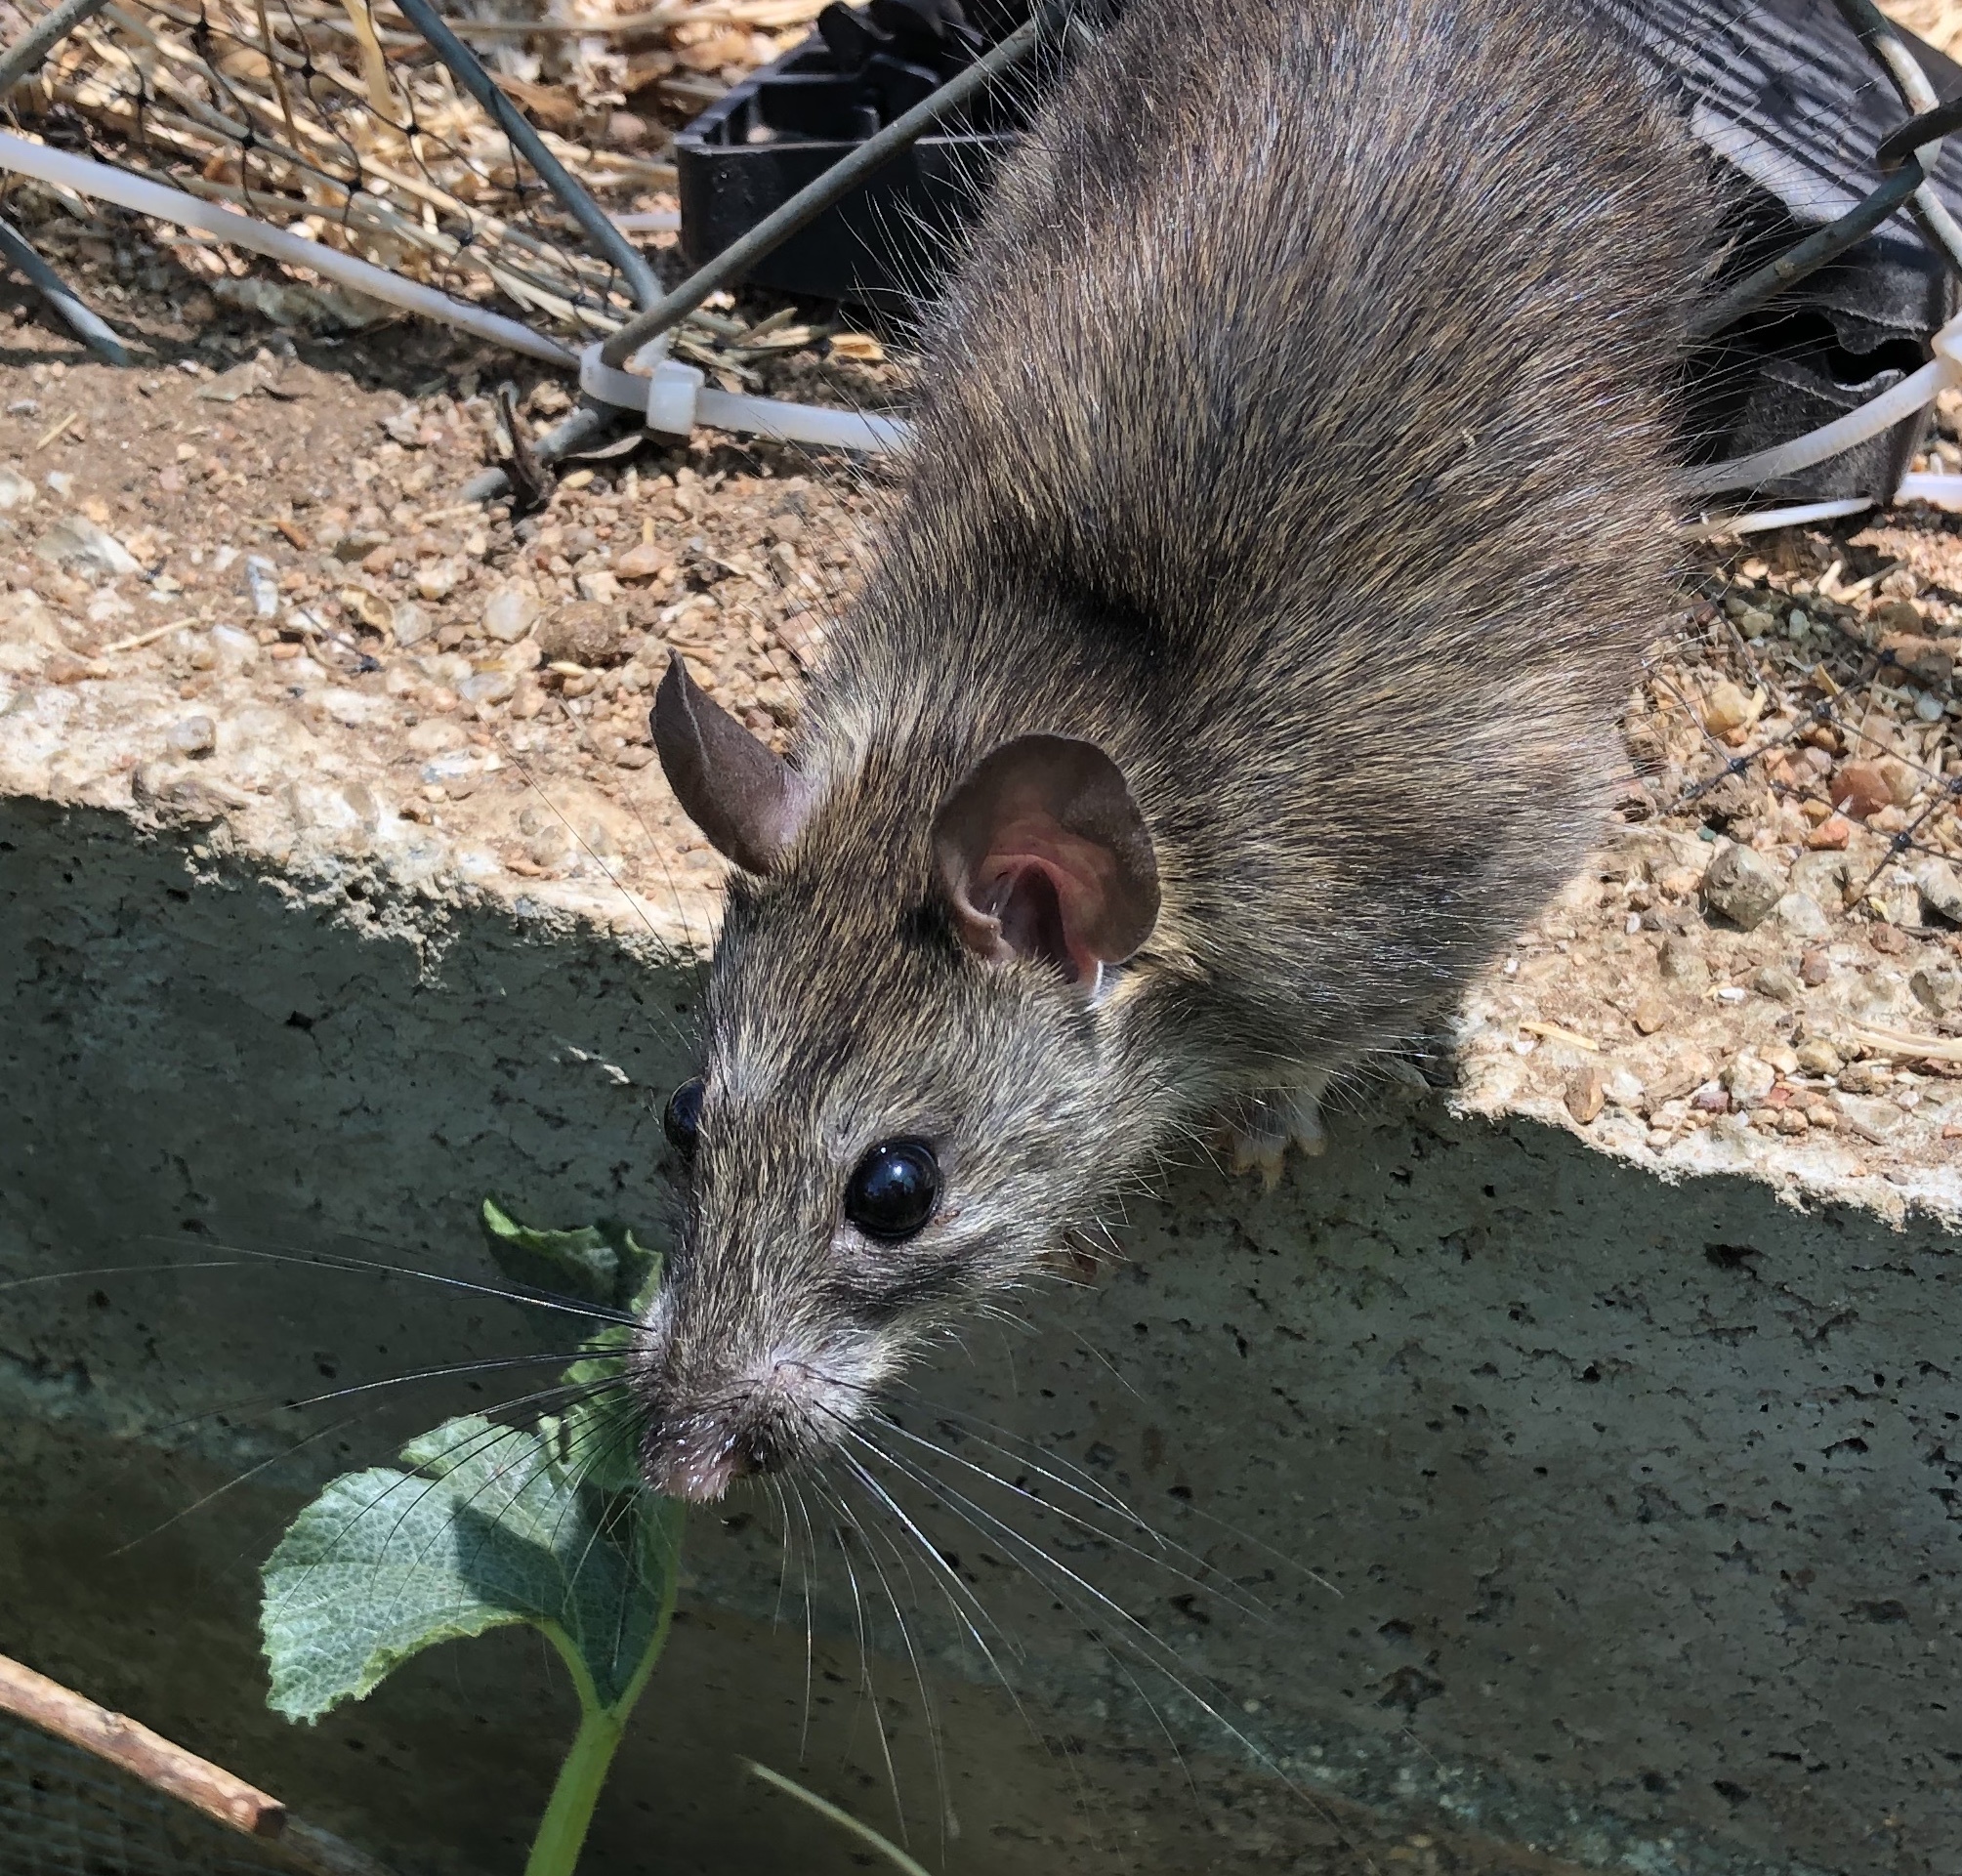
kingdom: Animalia
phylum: Chordata
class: Mammalia
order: Rodentia
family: Muridae
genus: Rattus
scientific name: Rattus rattus
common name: Black rat
